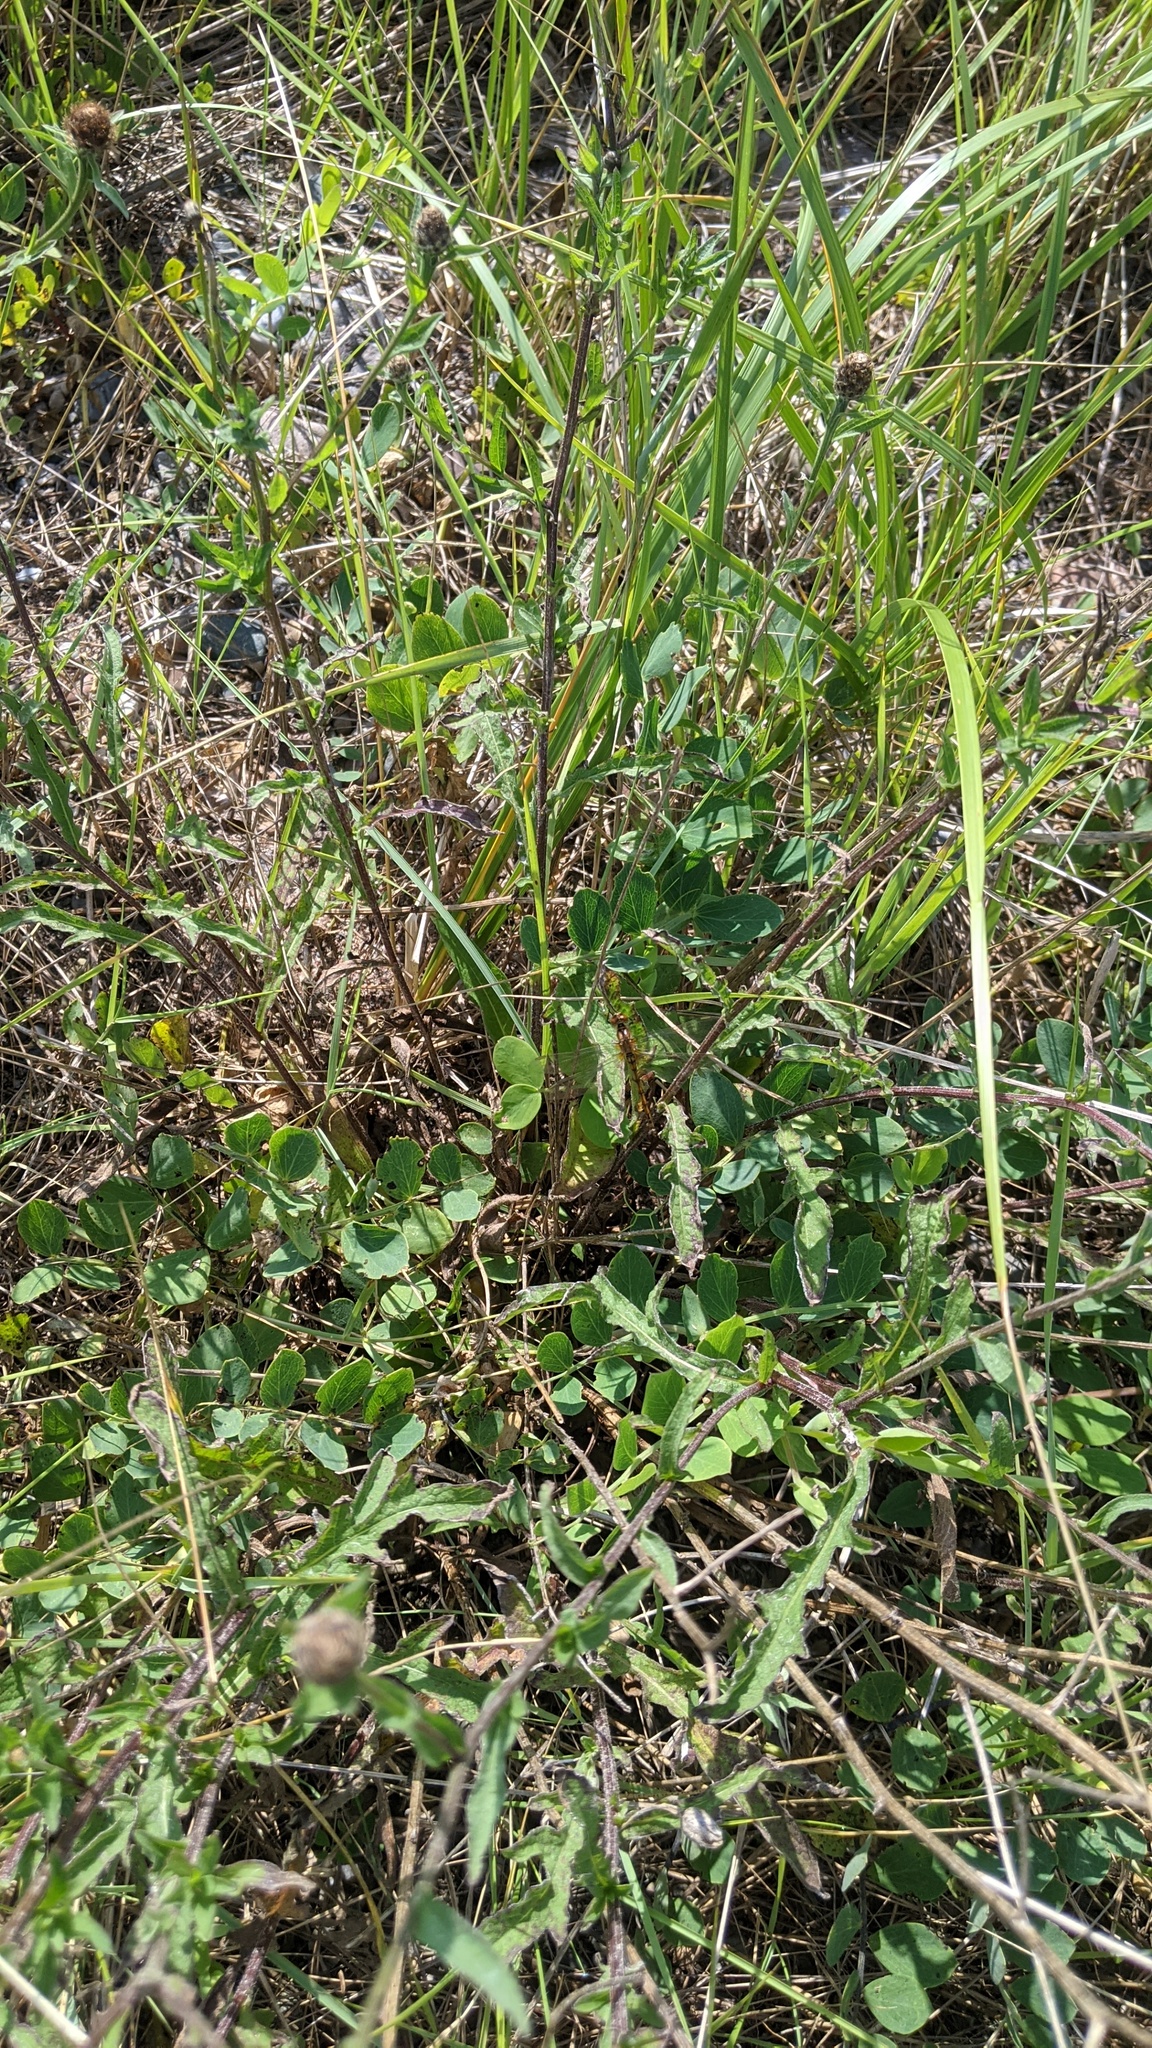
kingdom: Plantae
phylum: Tracheophyta
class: Magnoliopsida
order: Fabales
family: Fabaceae
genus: Lathyrus
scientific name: Lathyrus japonicus
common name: Sea pea
